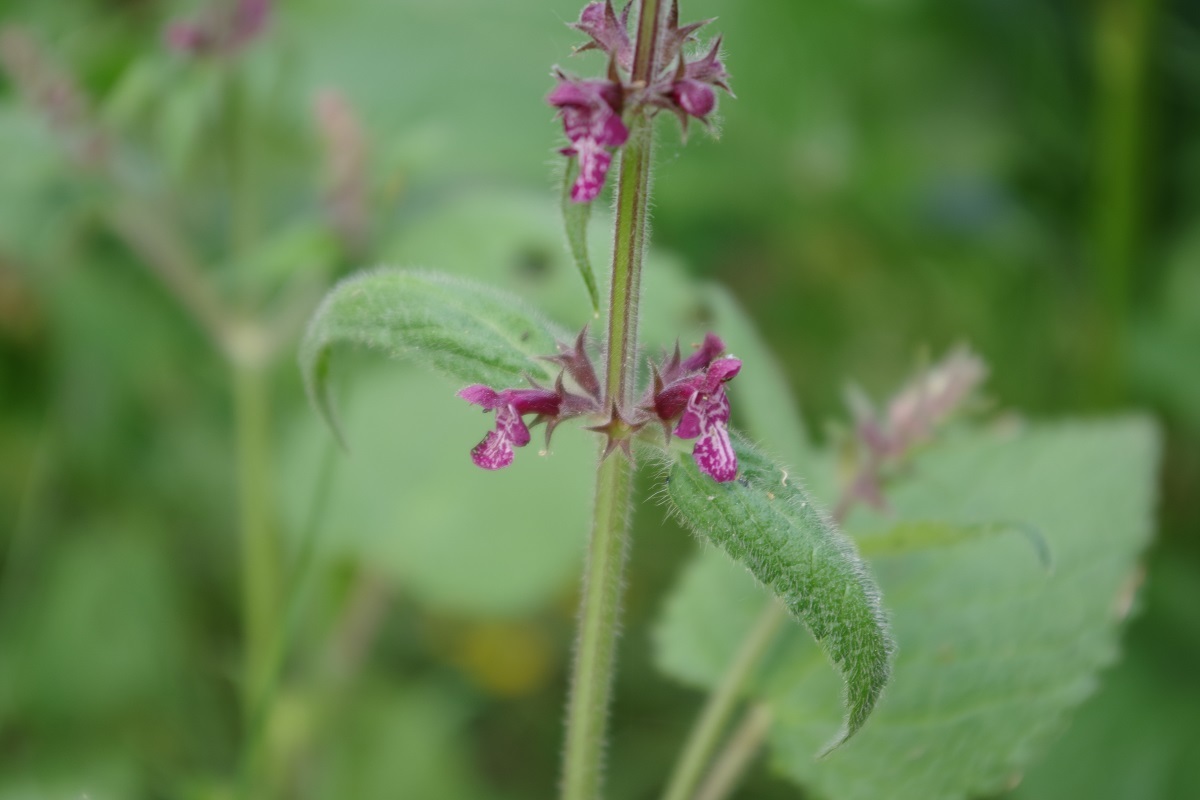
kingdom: Plantae
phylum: Tracheophyta
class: Magnoliopsida
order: Lamiales
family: Lamiaceae
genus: Stachys
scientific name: Stachys sylvatica
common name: Hedge woundwort
